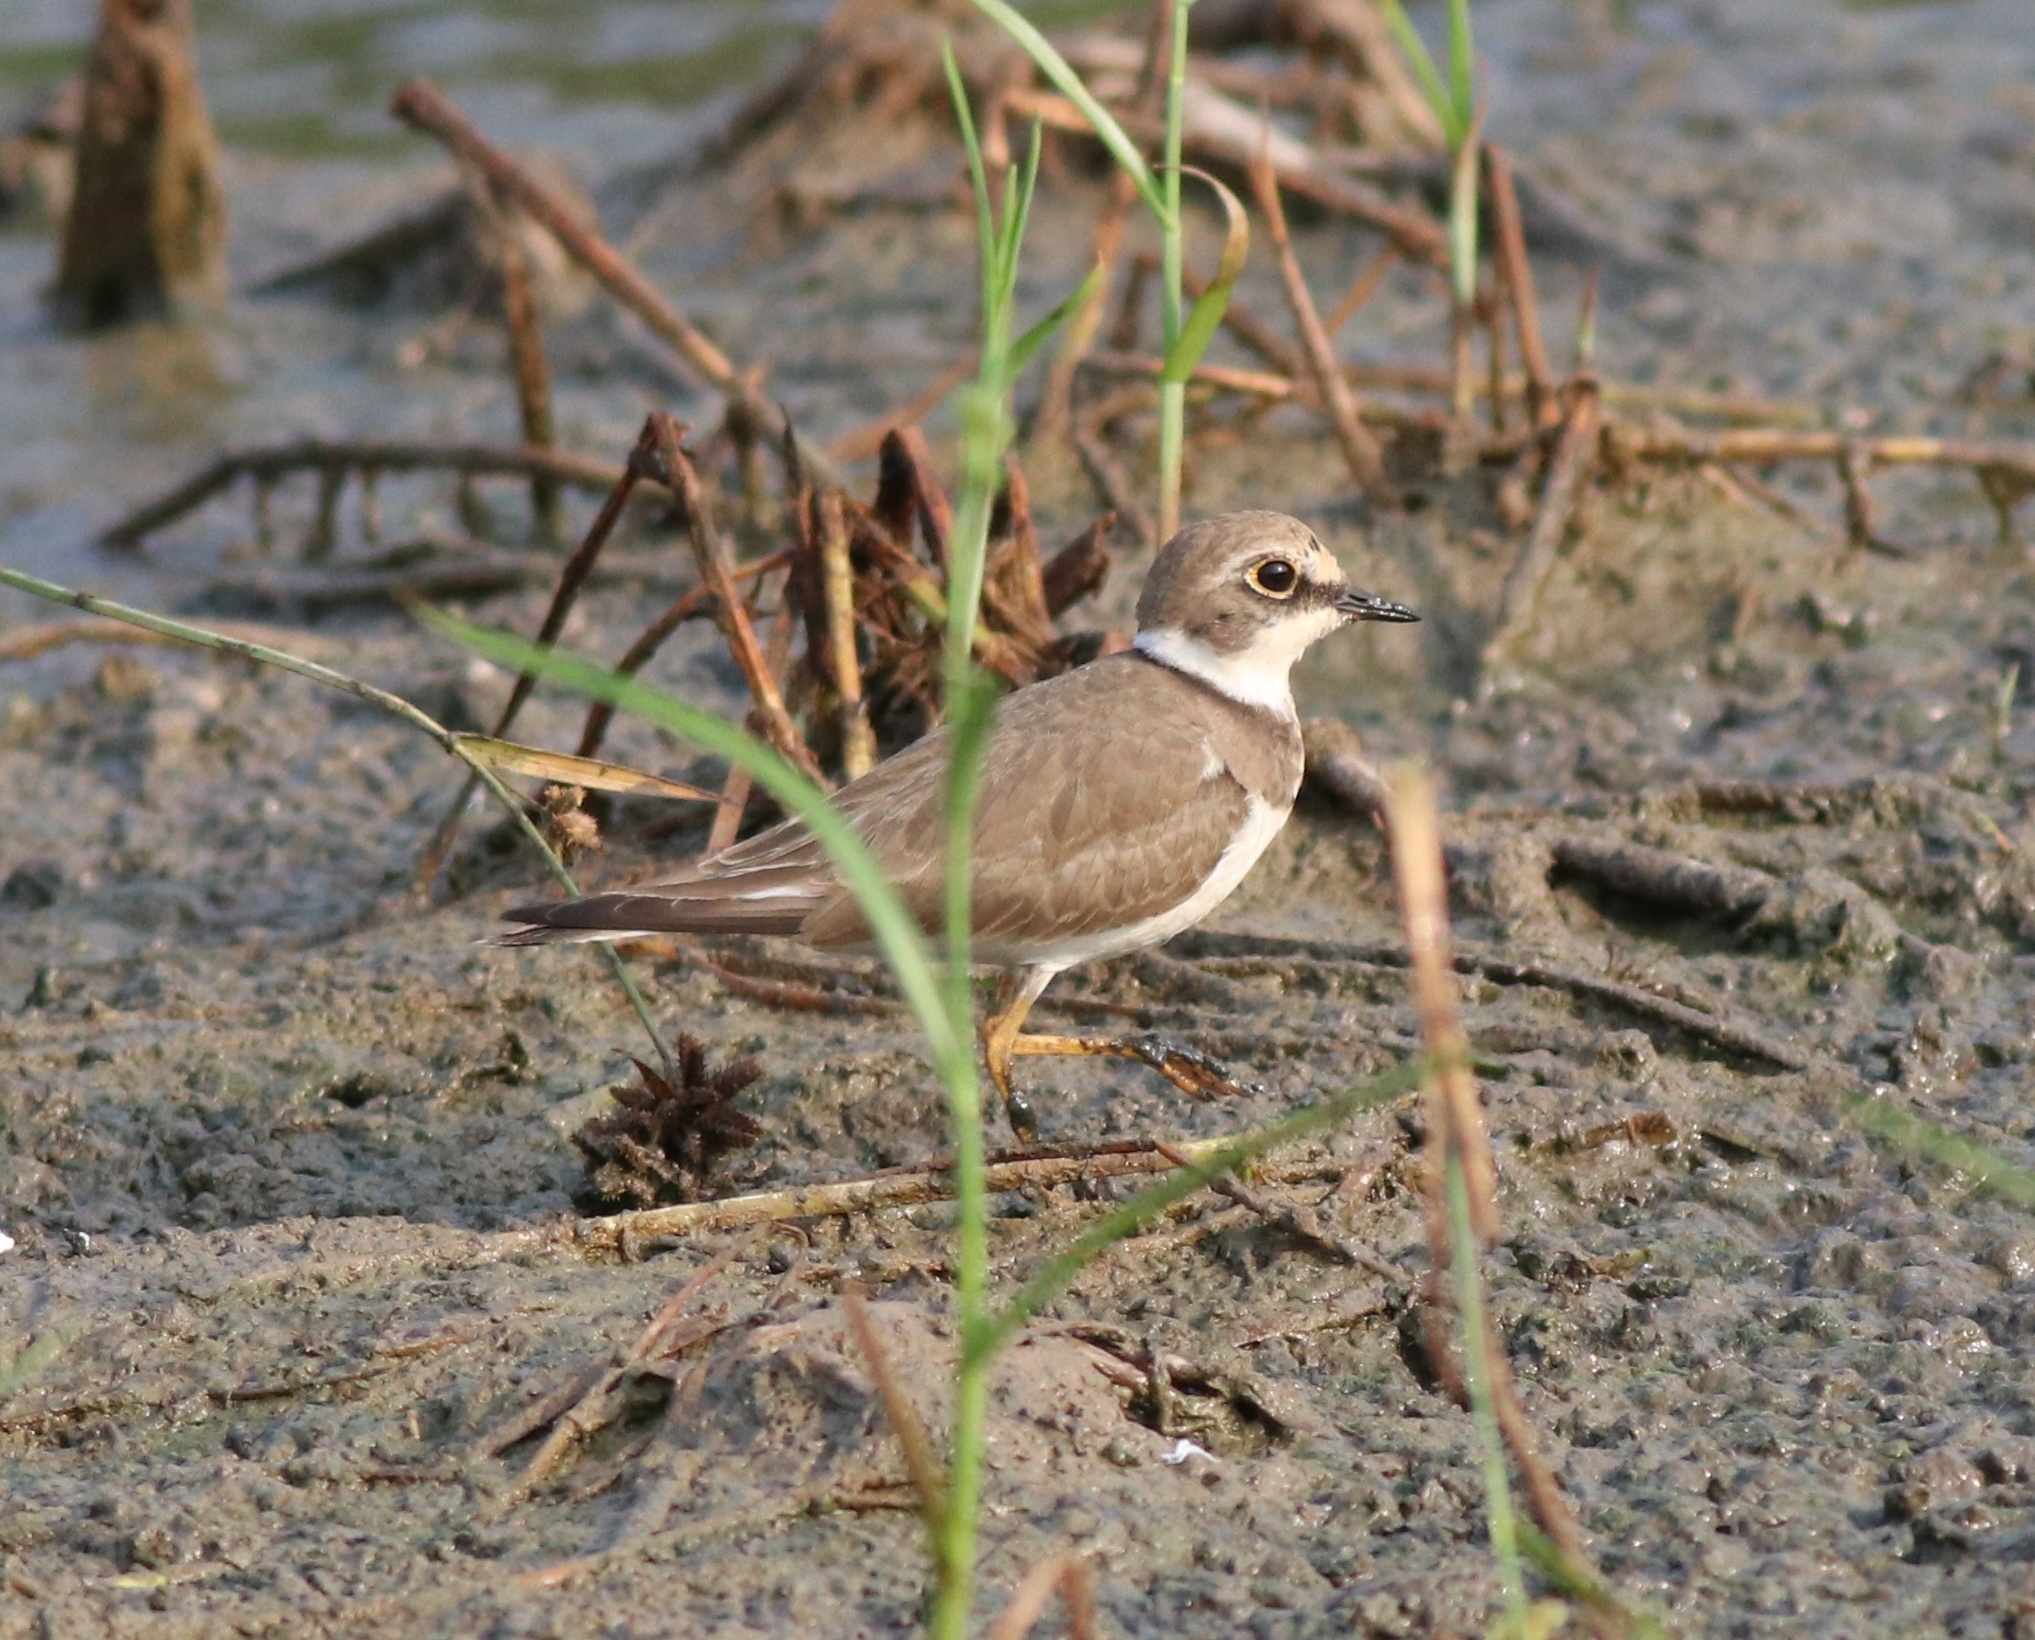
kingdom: Animalia
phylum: Chordata
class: Aves
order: Charadriiformes
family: Charadriidae
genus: Charadrius
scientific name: Charadrius dubius
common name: Little ringed plover
